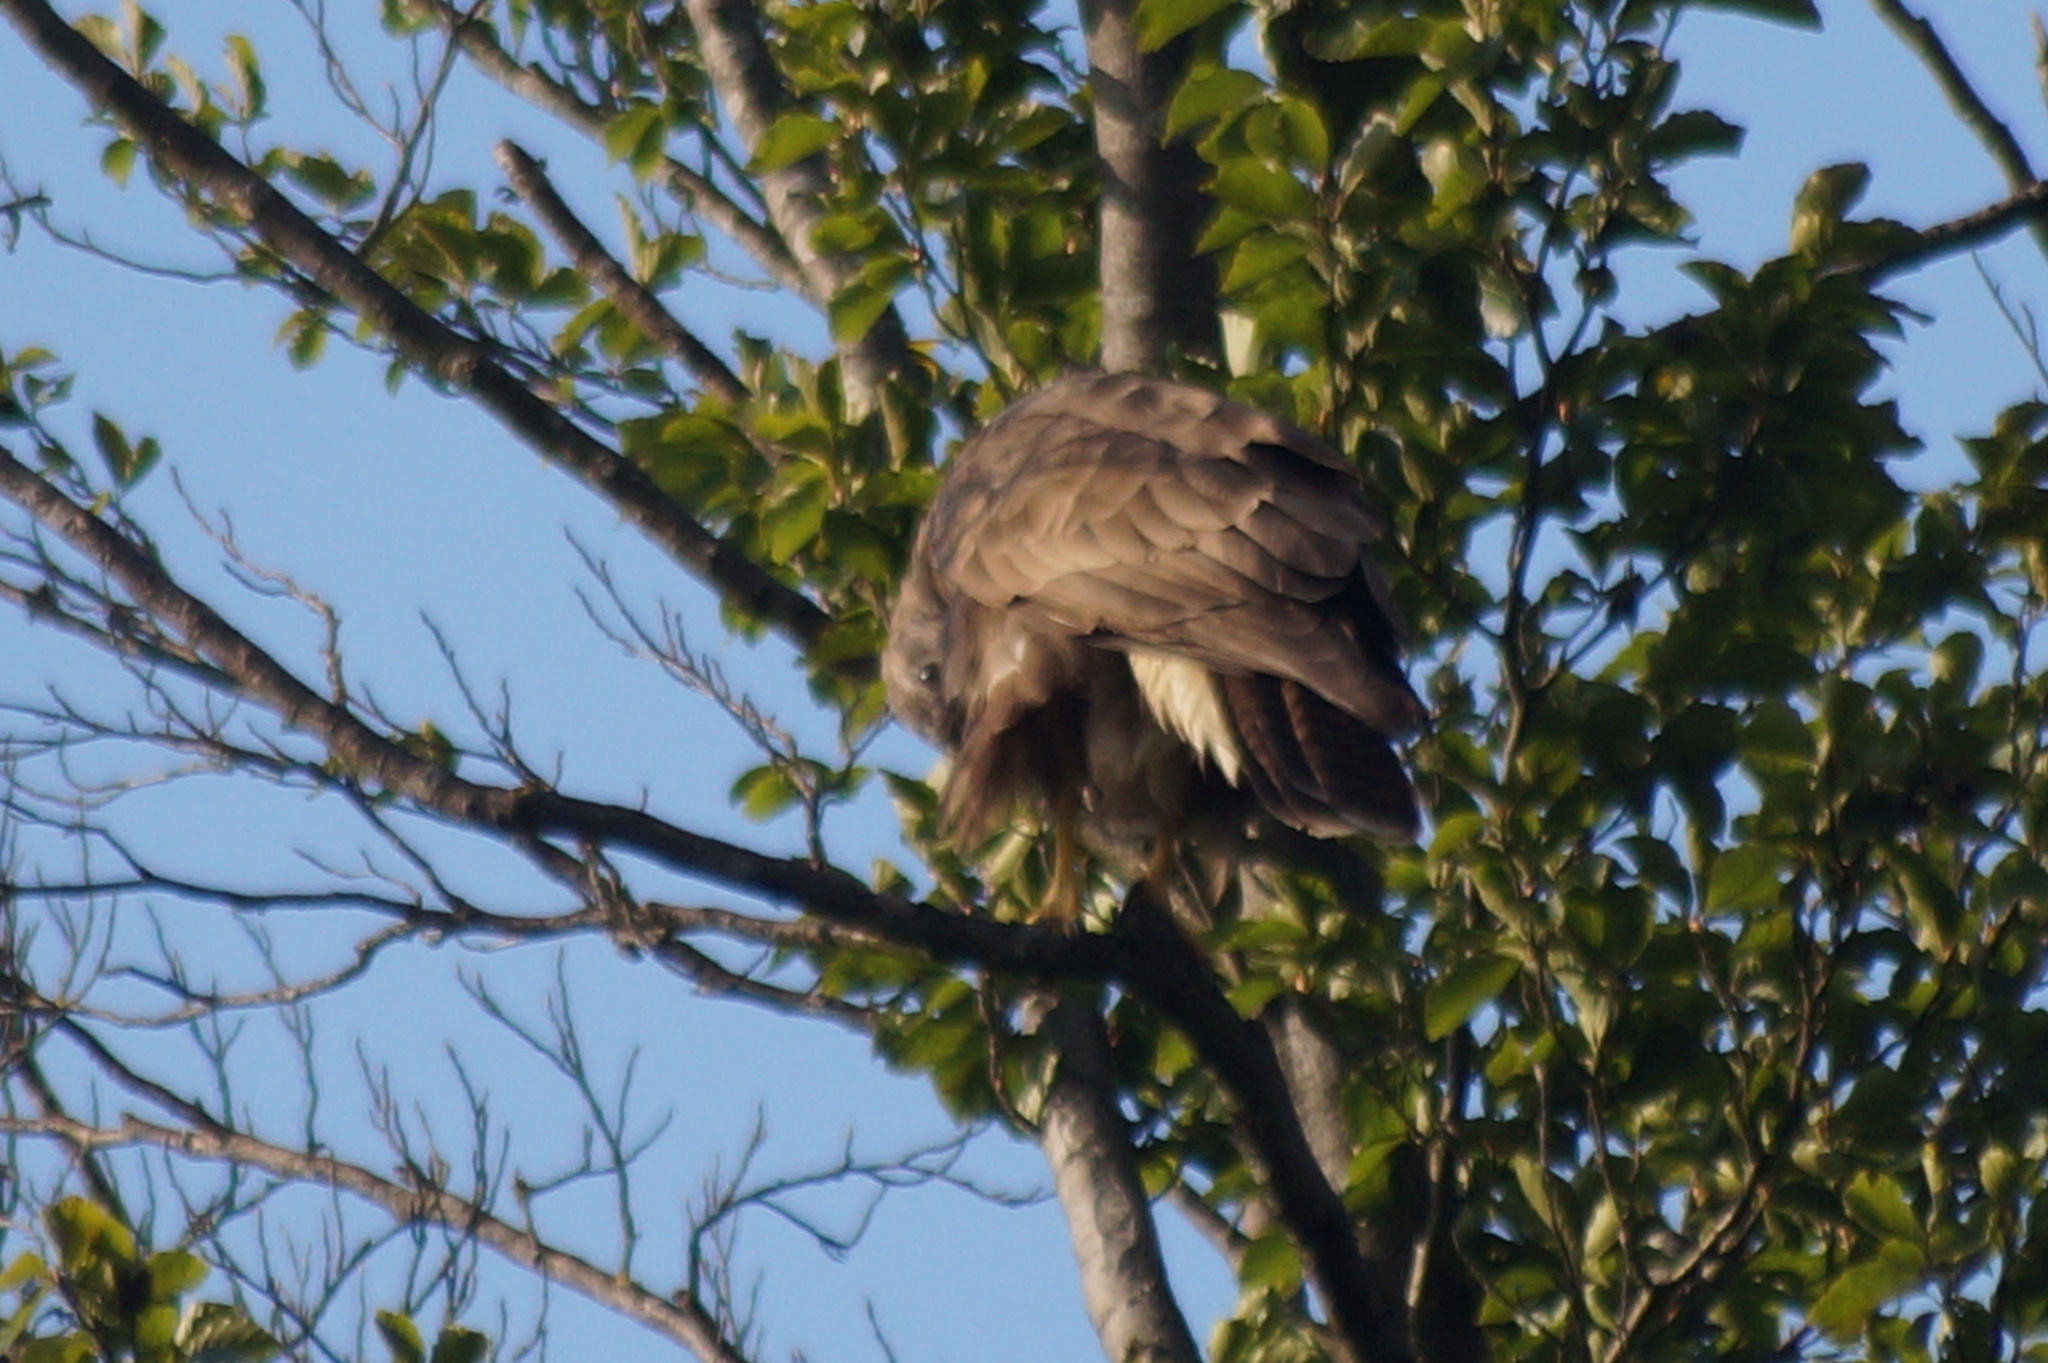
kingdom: Animalia
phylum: Chordata
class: Aves
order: Accipitriformes
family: Accipitridae
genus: Buteo
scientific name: Buteo buteo
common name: Common buzzard
